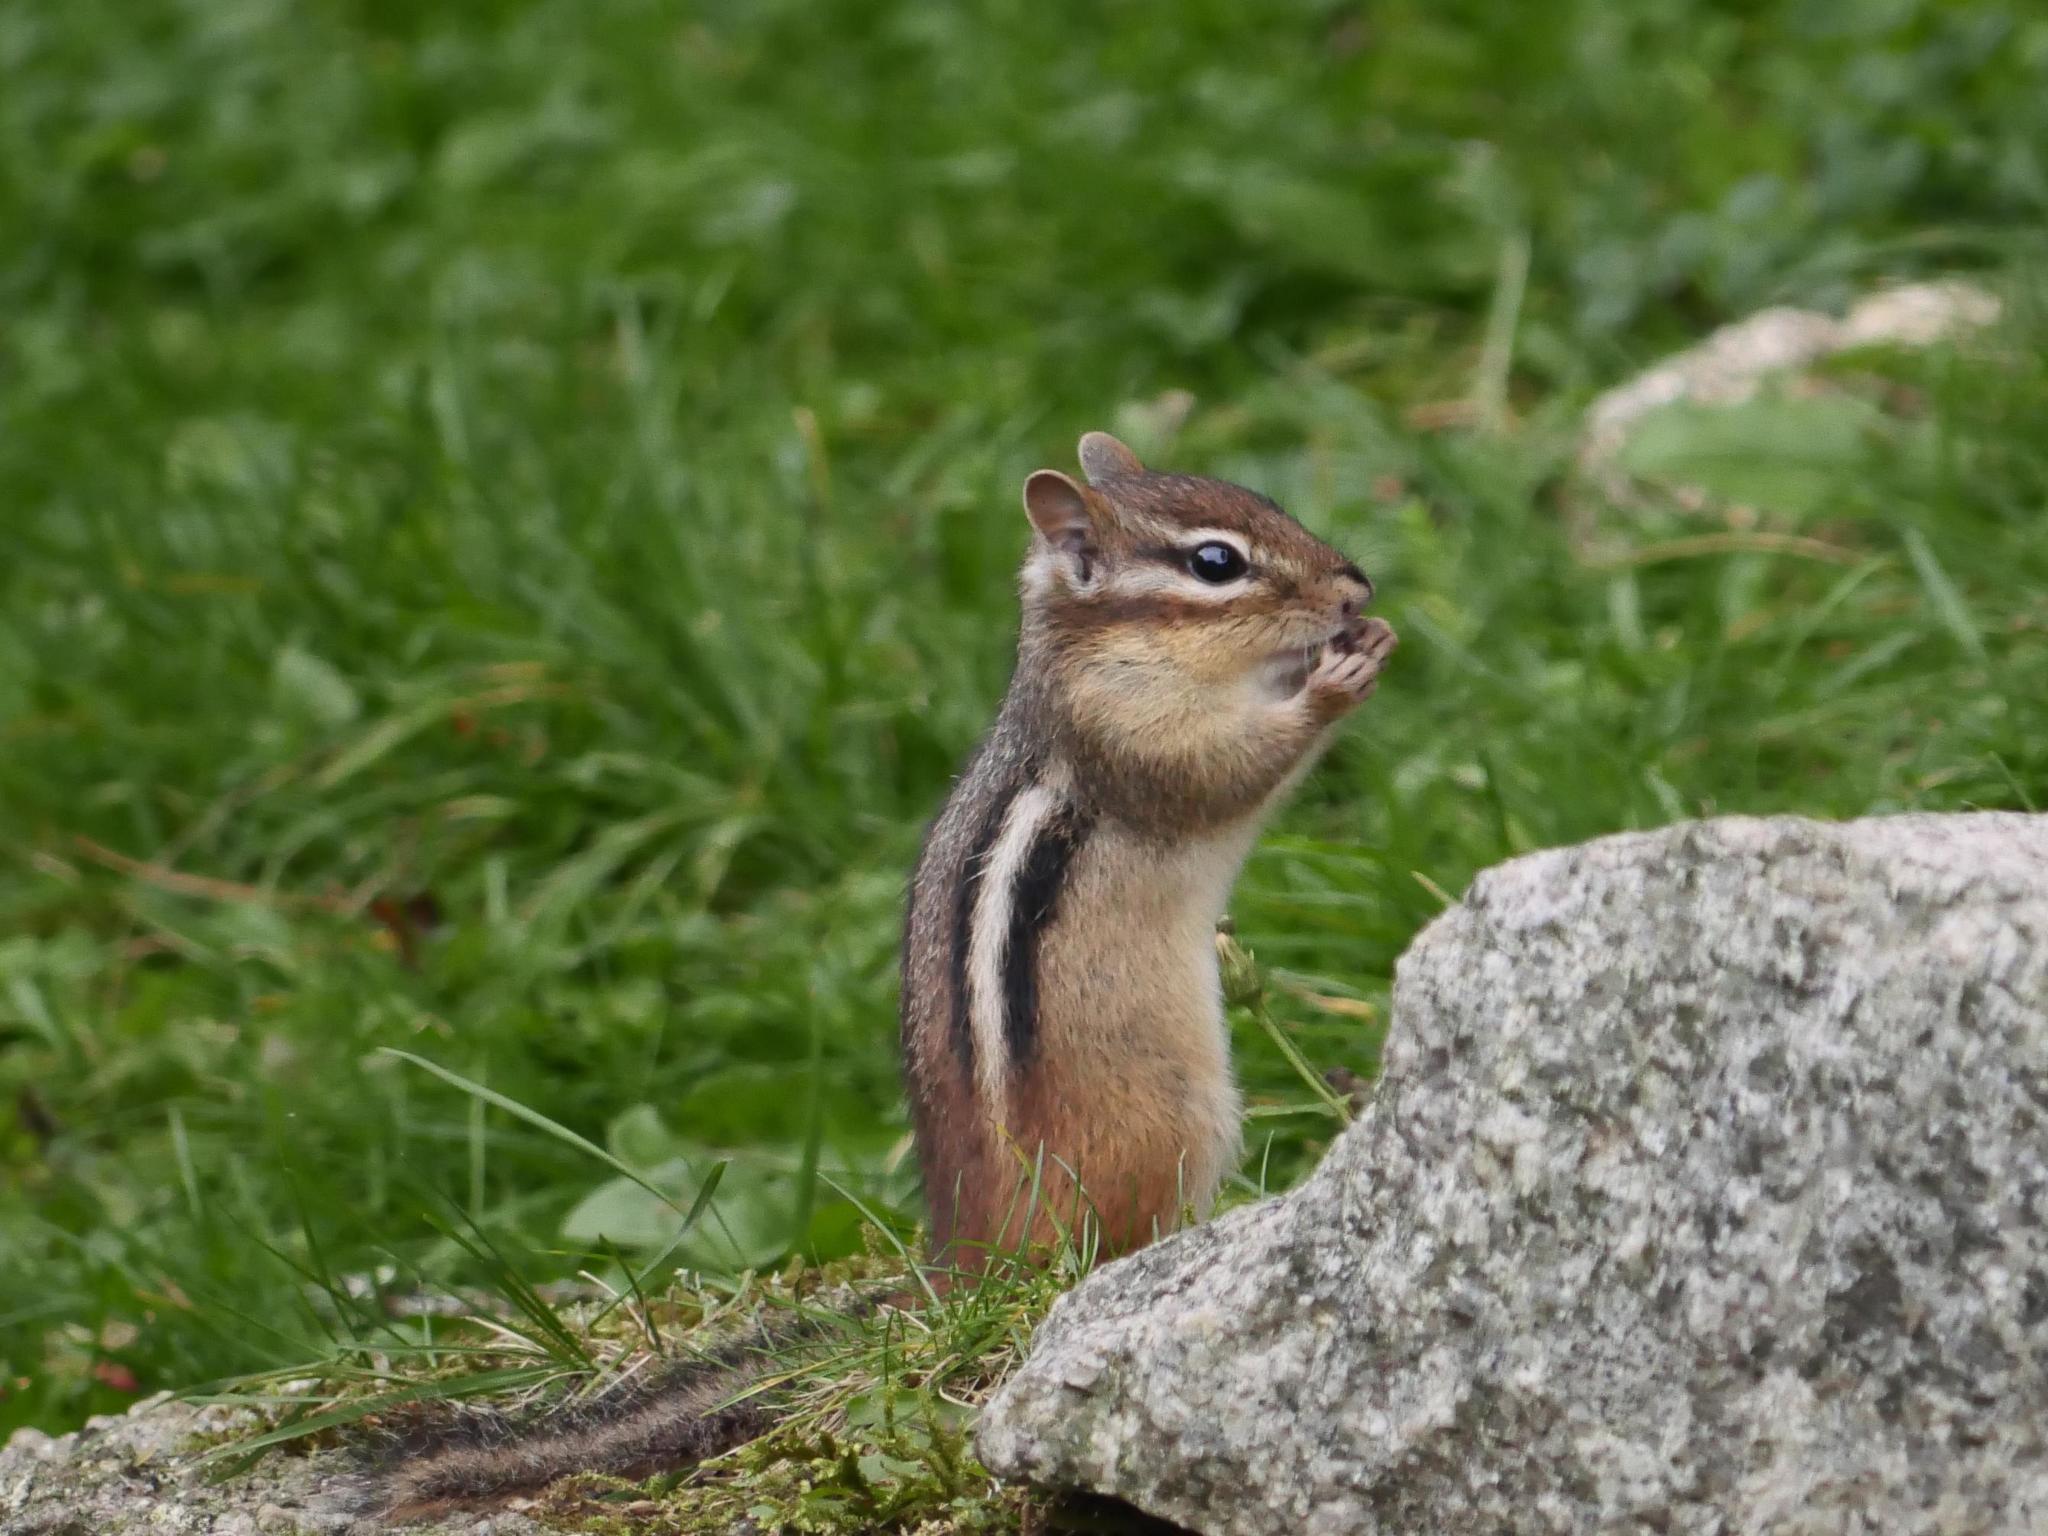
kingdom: Animalia
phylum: Chordata
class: Mammalia
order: Rodentia
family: Sciuridae
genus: Tamias
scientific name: Tamias striatus
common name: Eastern chipmunk
